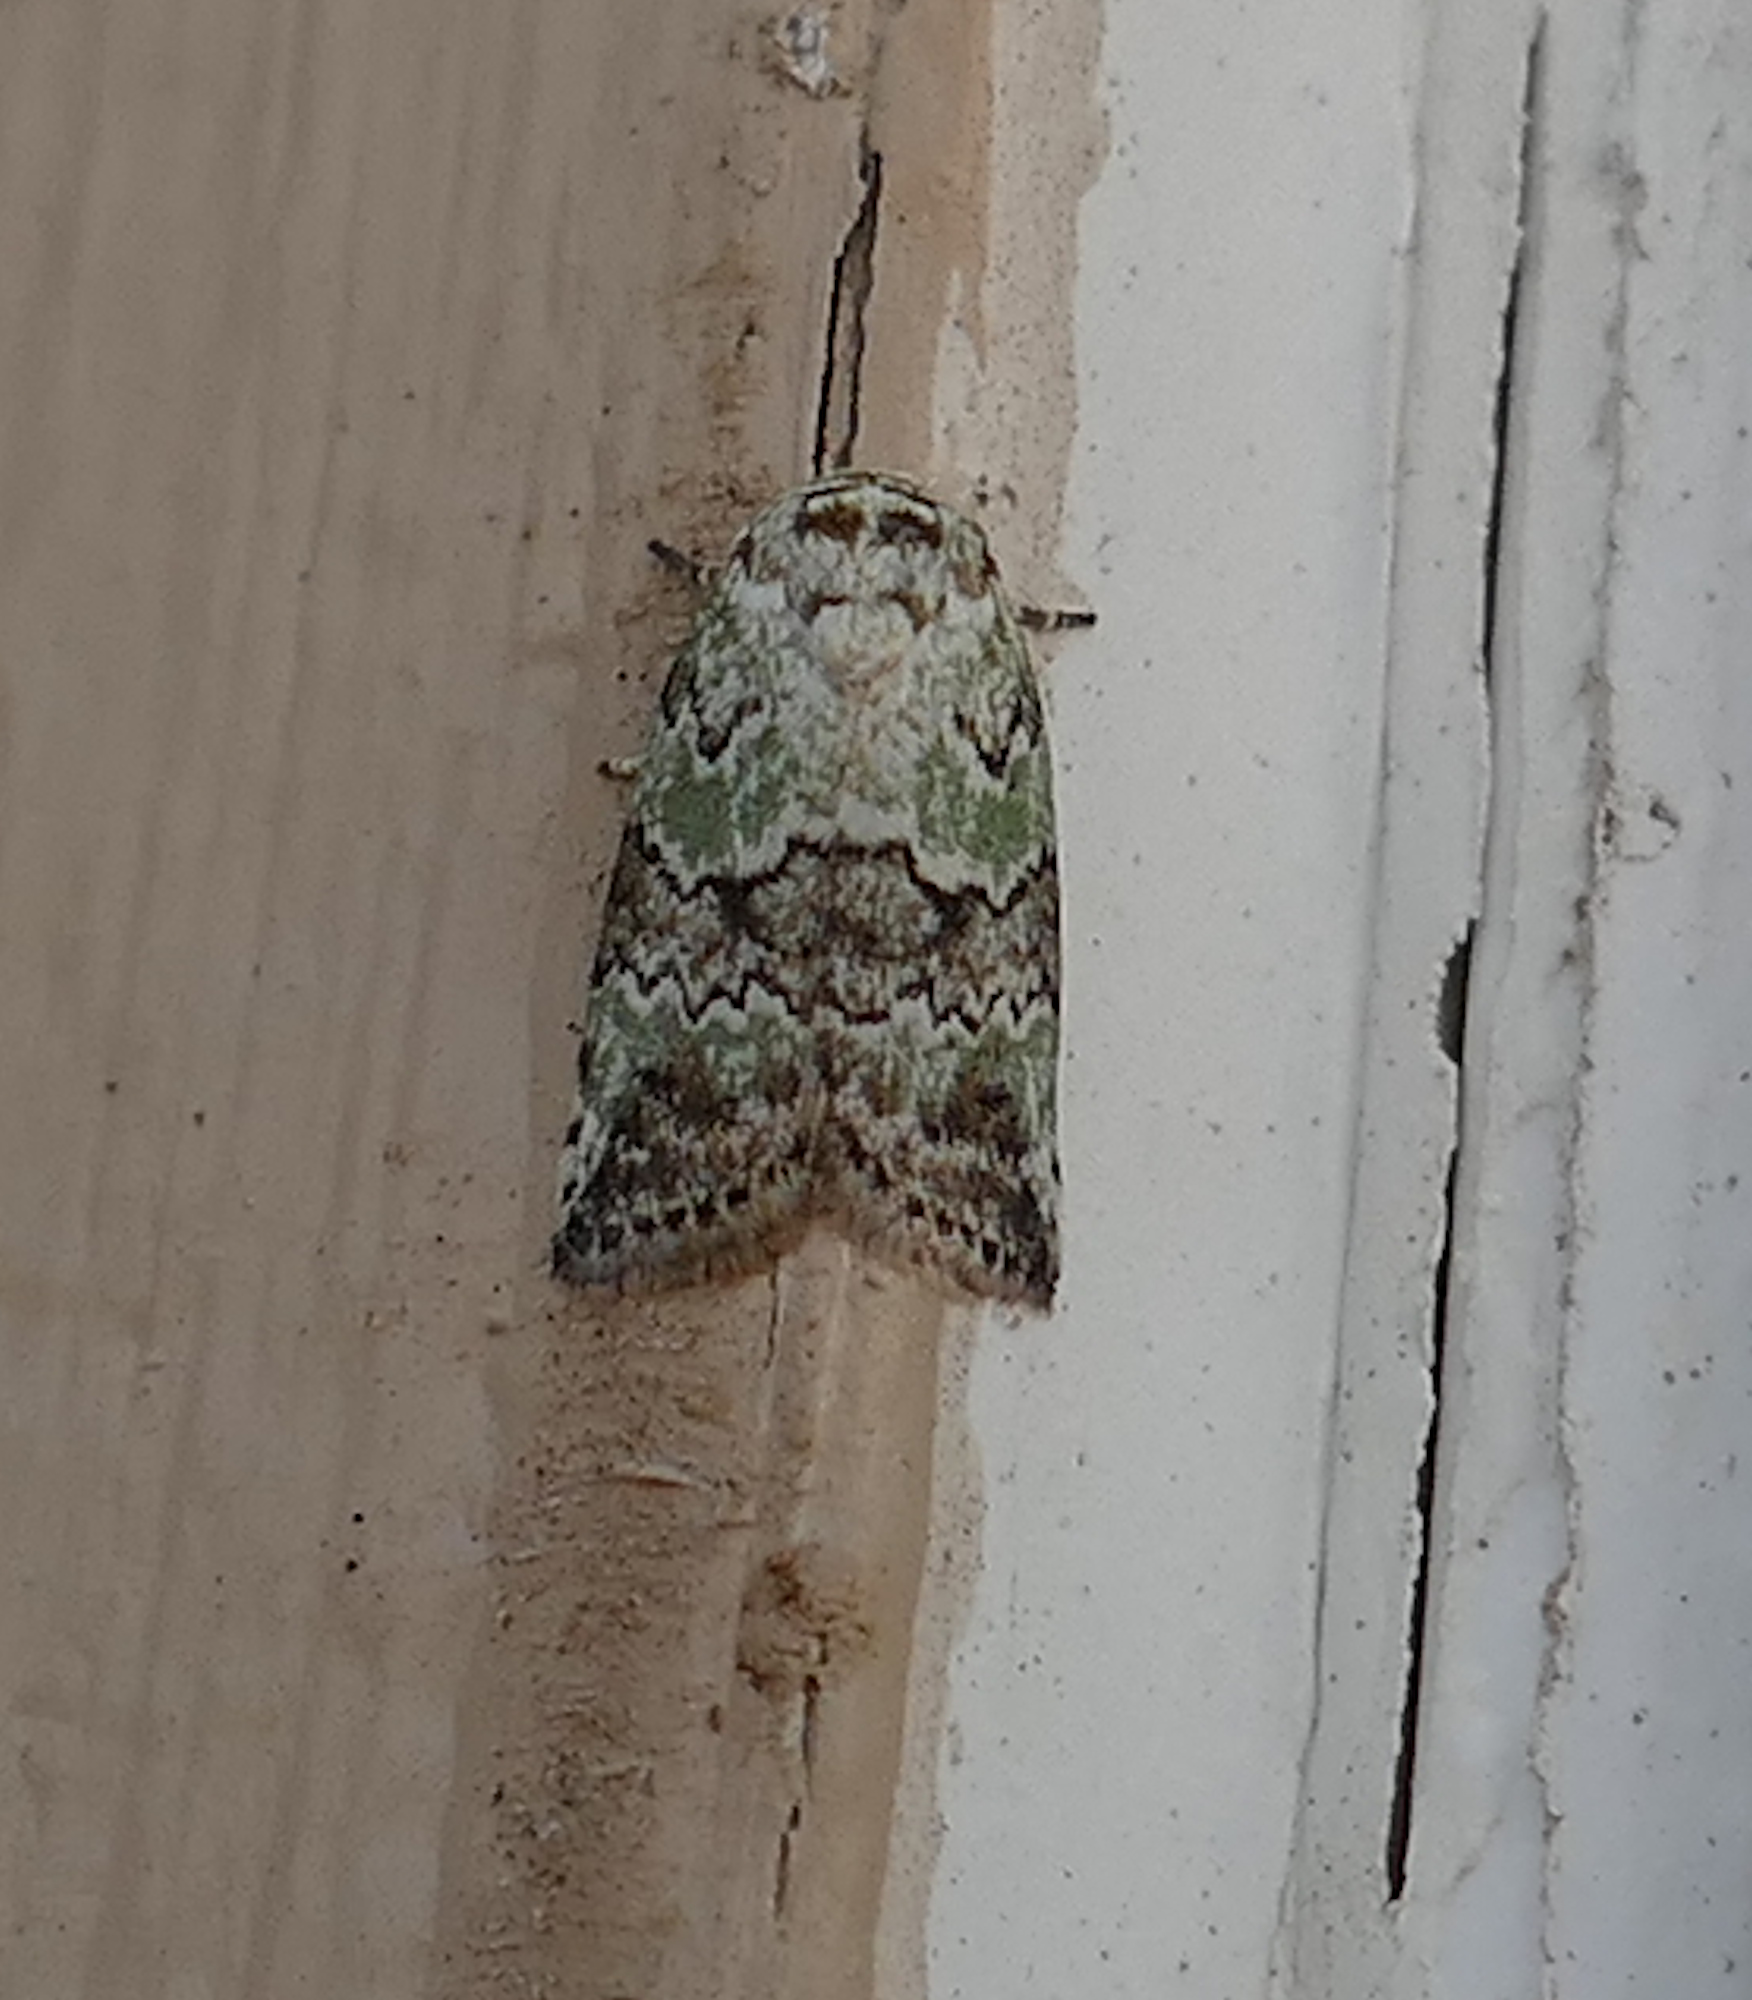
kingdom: Animalia
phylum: Arthropoda
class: Insecta
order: Lepidoptera
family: Nolidae
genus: Afrida
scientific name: Afrida ydatodes
